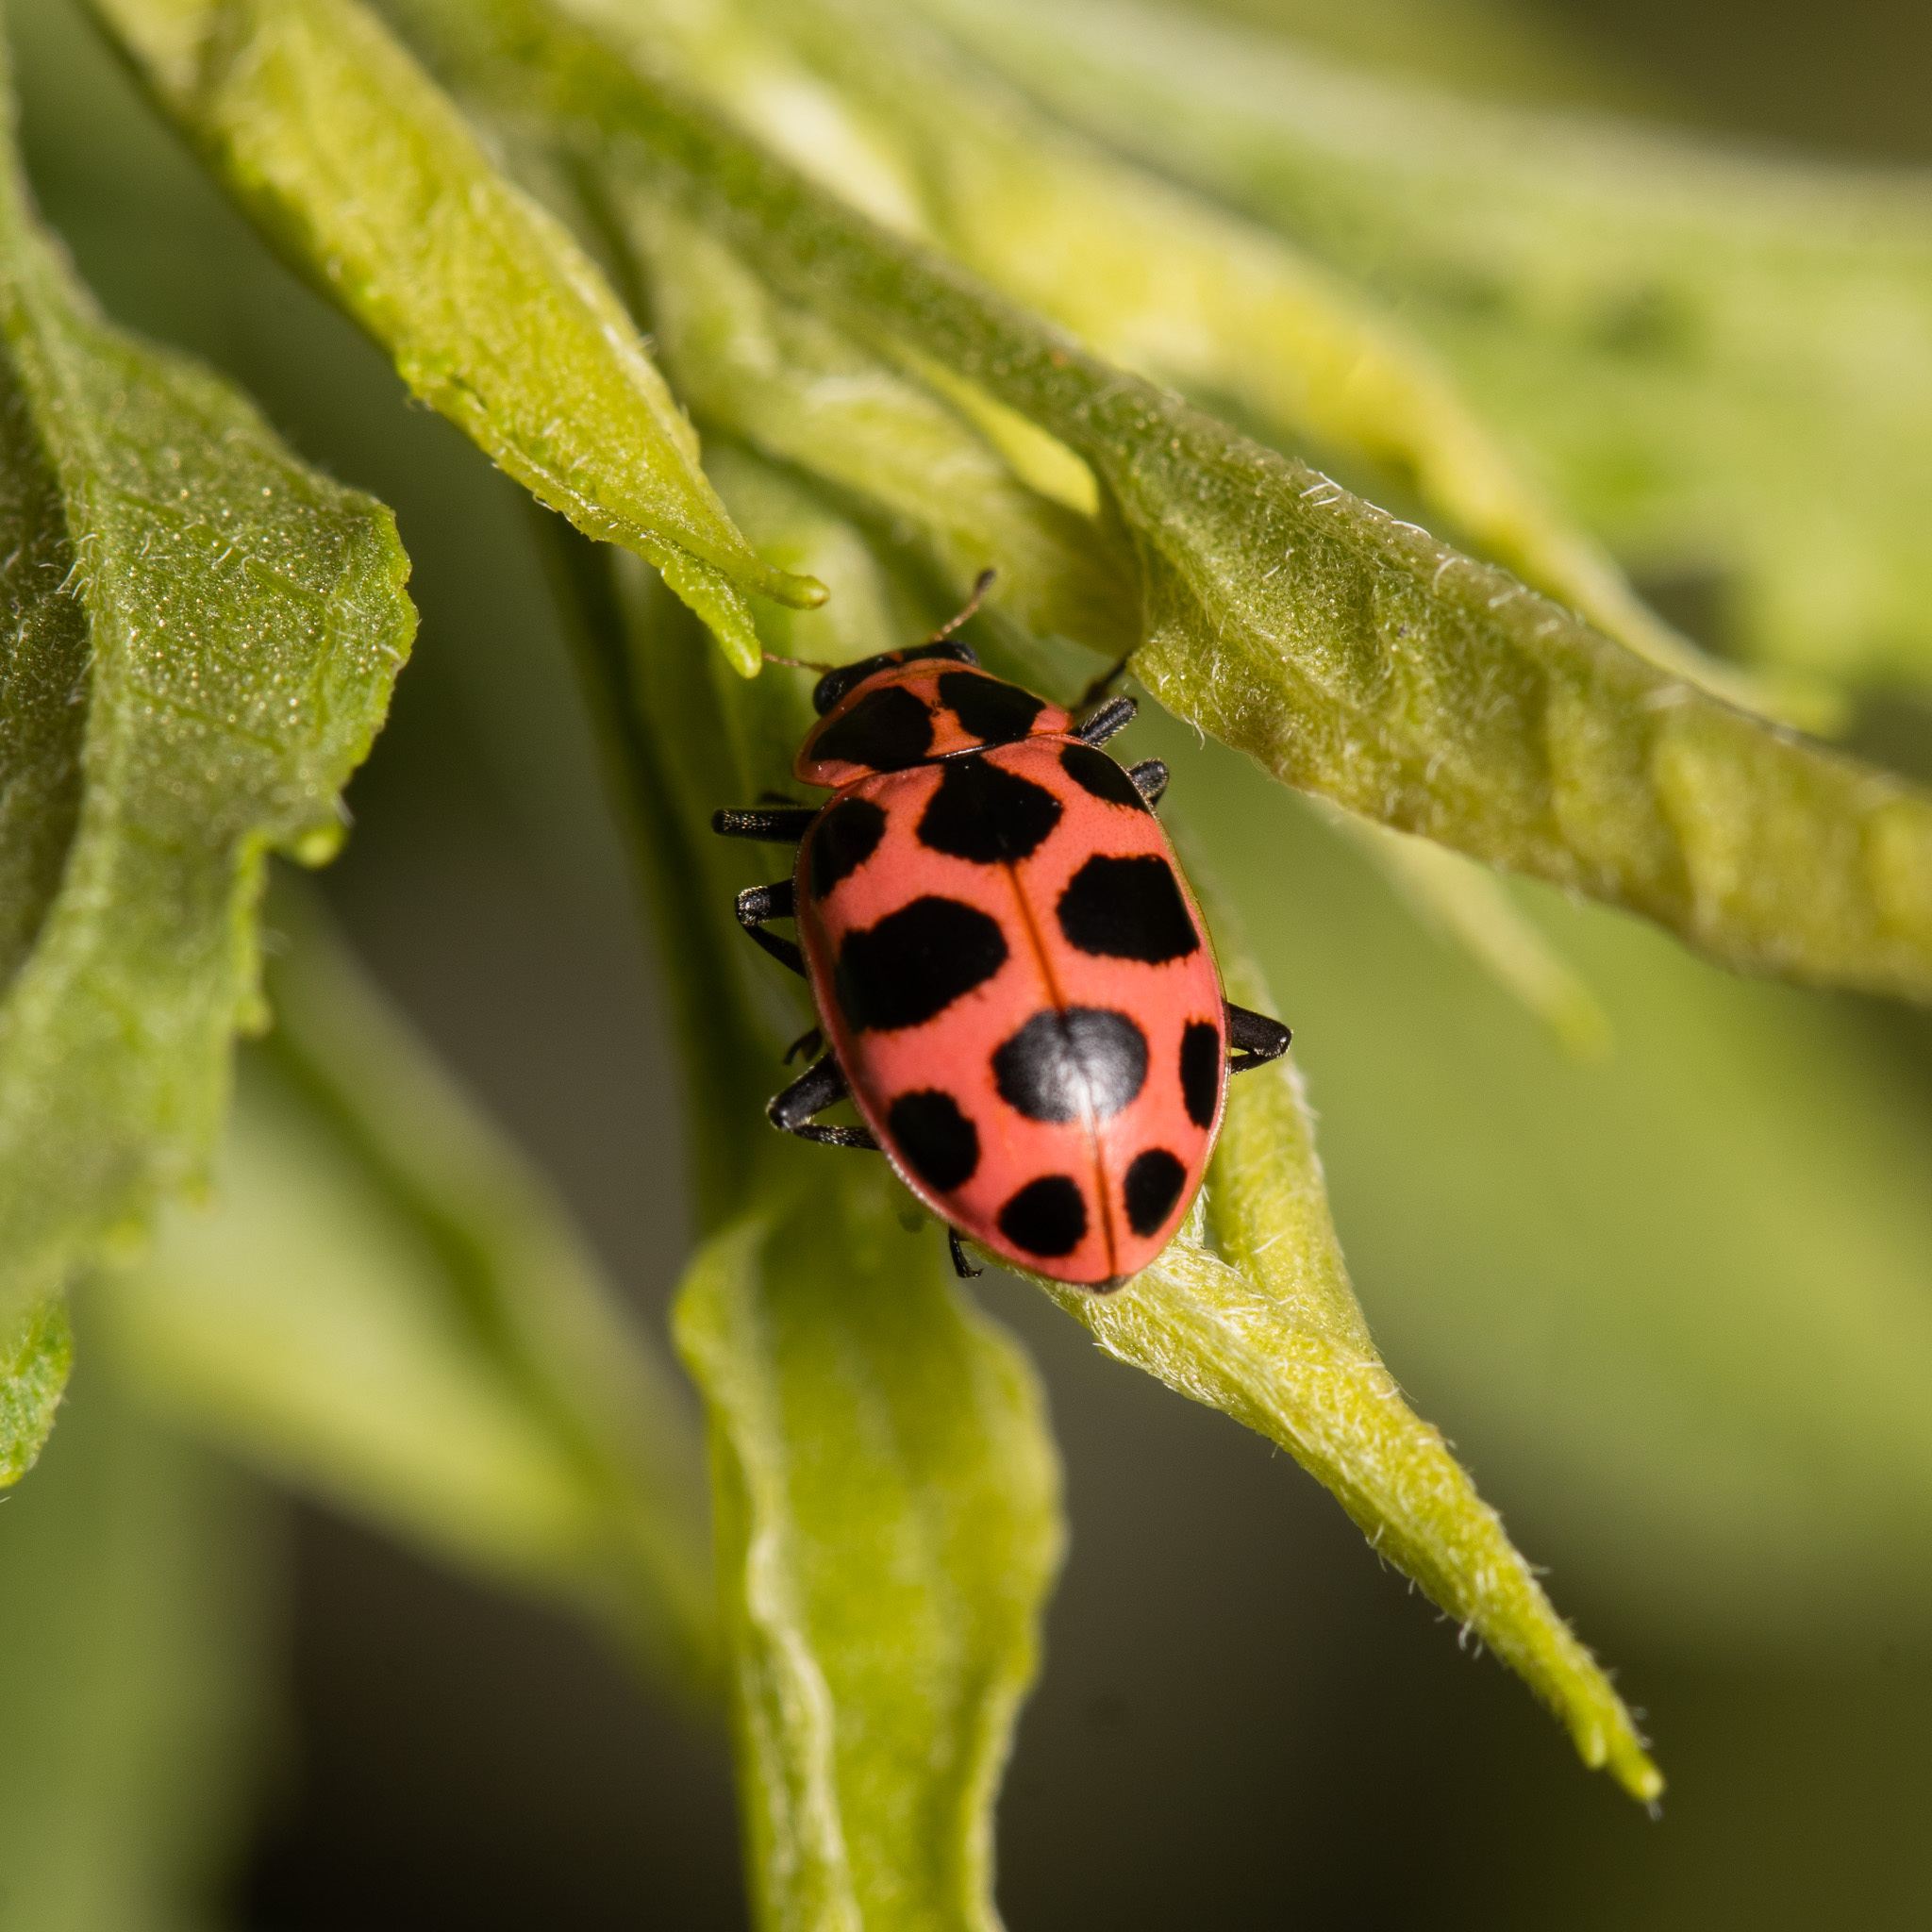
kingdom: Animalia
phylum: Arthropoda
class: Insecta
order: Coleoptera
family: Coccinellidae
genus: Coleomegilla
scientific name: Coleomegilla maculata
